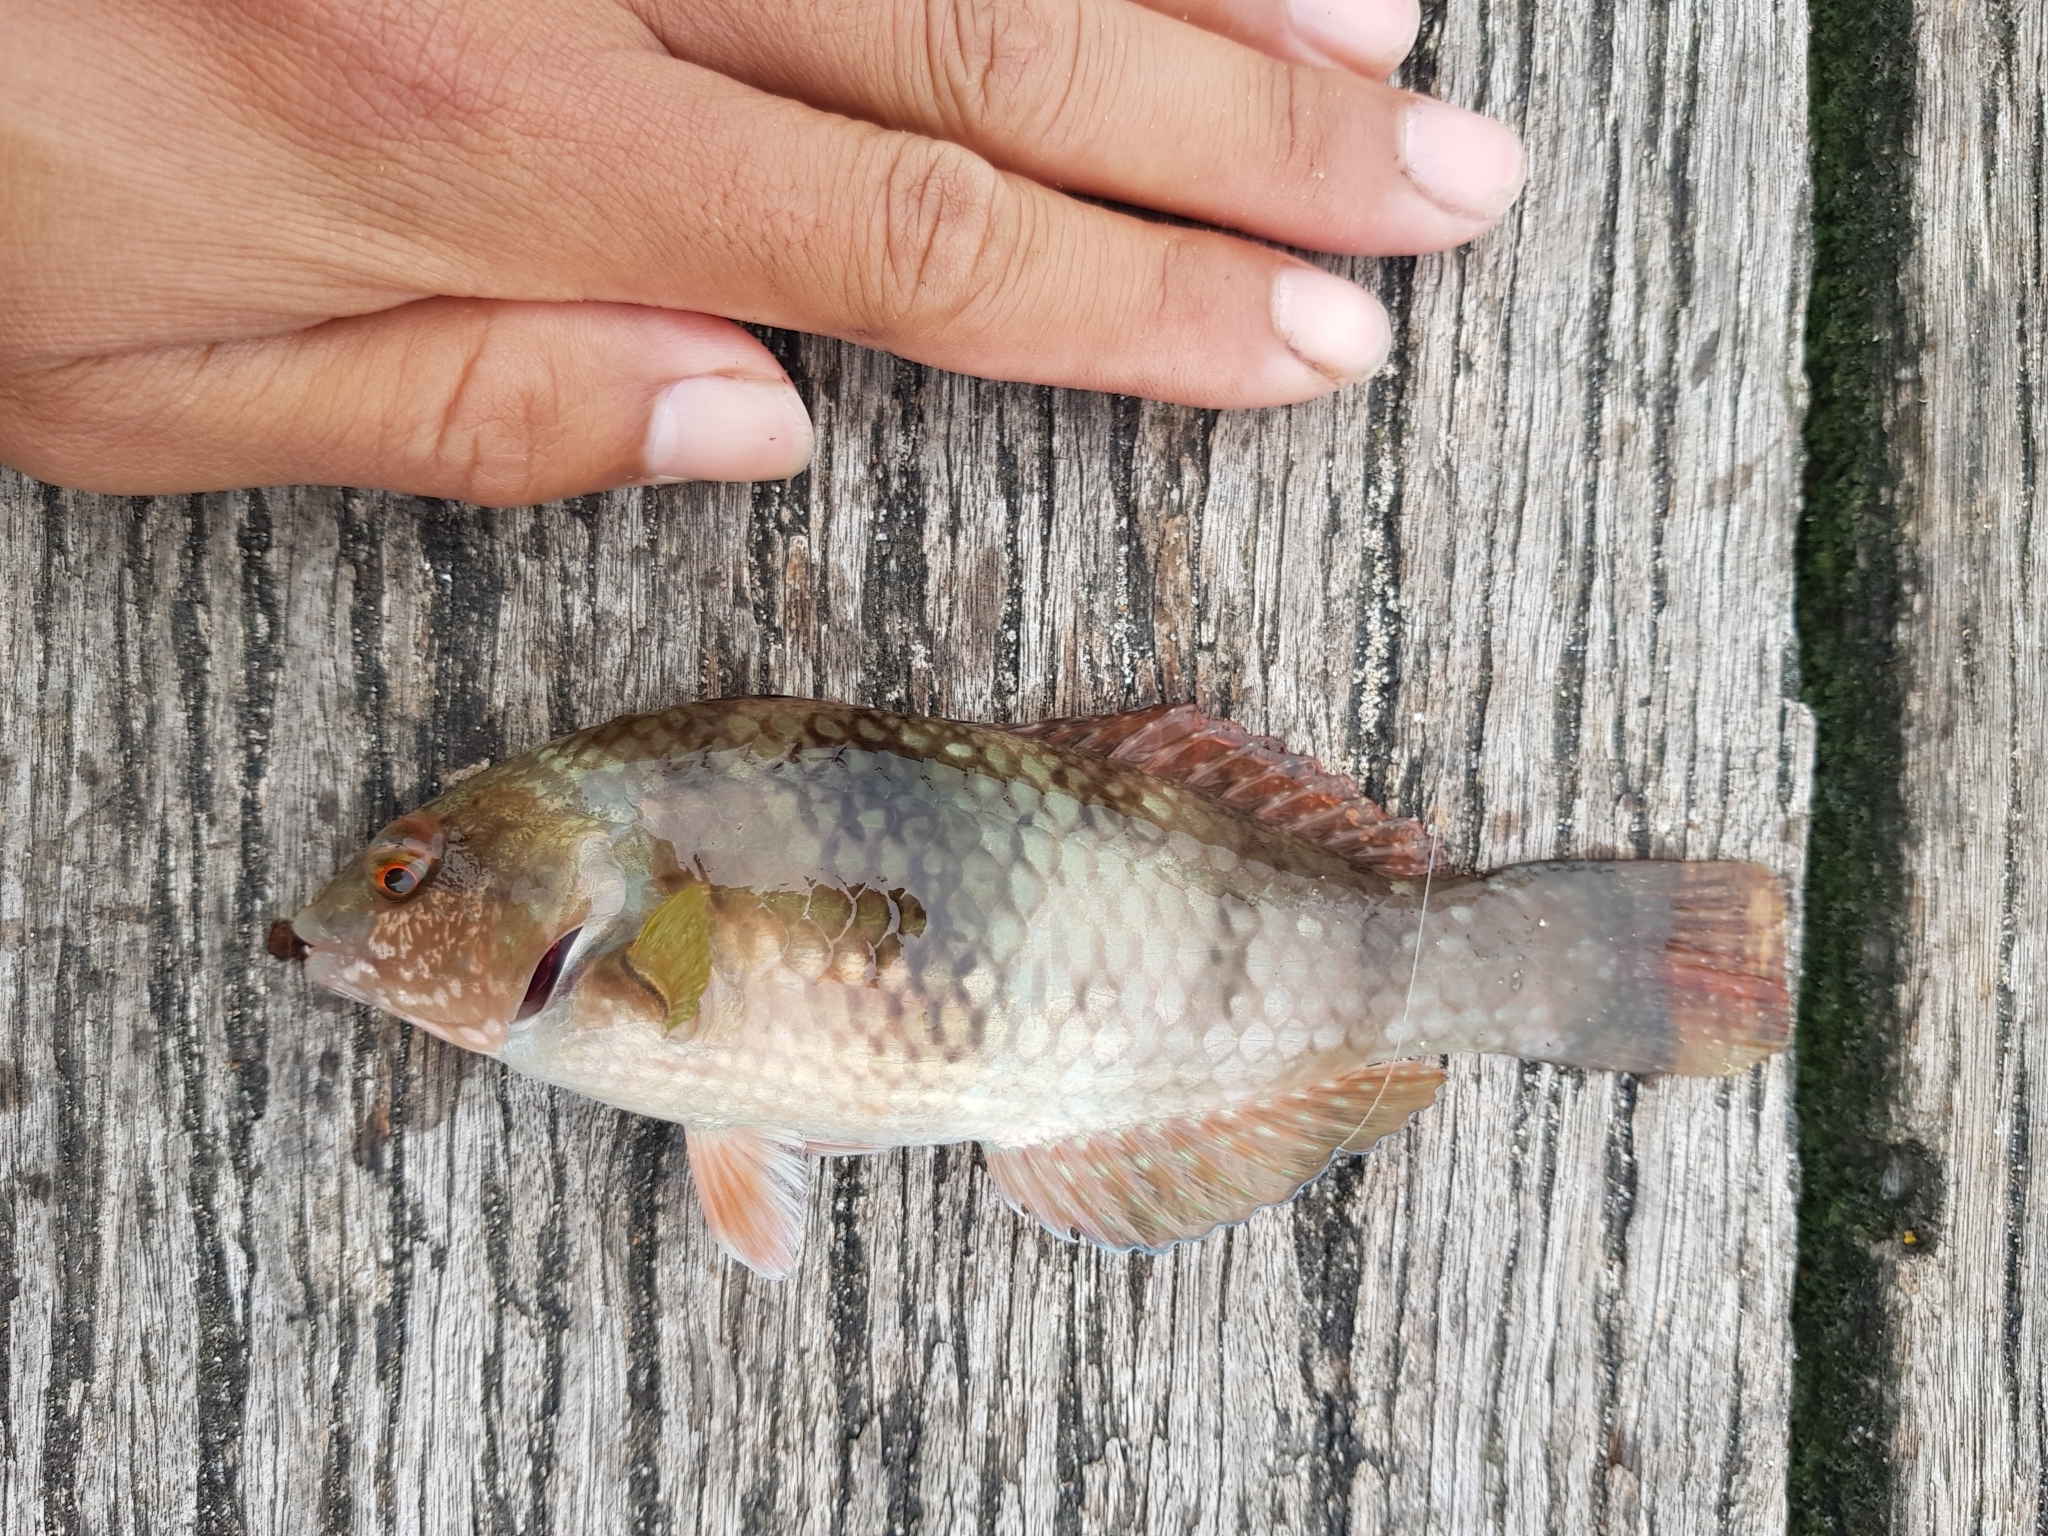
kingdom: Animalia
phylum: Chordata
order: Perciformes
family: Labridae
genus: Notolabrus
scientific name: Notolabrus tetricus
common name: Blue-throated parrotfish
